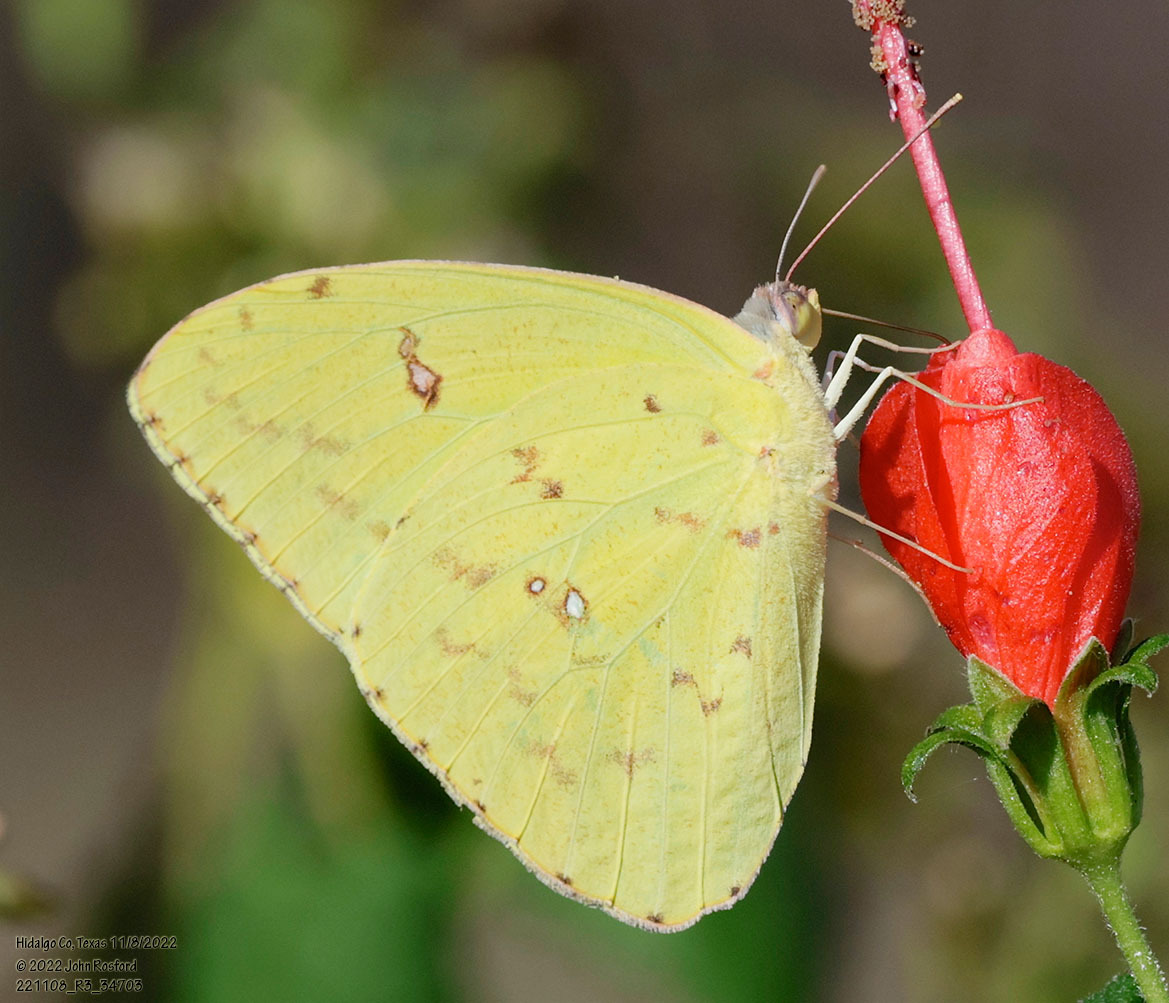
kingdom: Animalia
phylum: Arthropoda
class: Insecta
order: Lepidoptera
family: Pieridae
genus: Phoebis
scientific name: Phoebis sennae
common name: Cloudless sulphur
